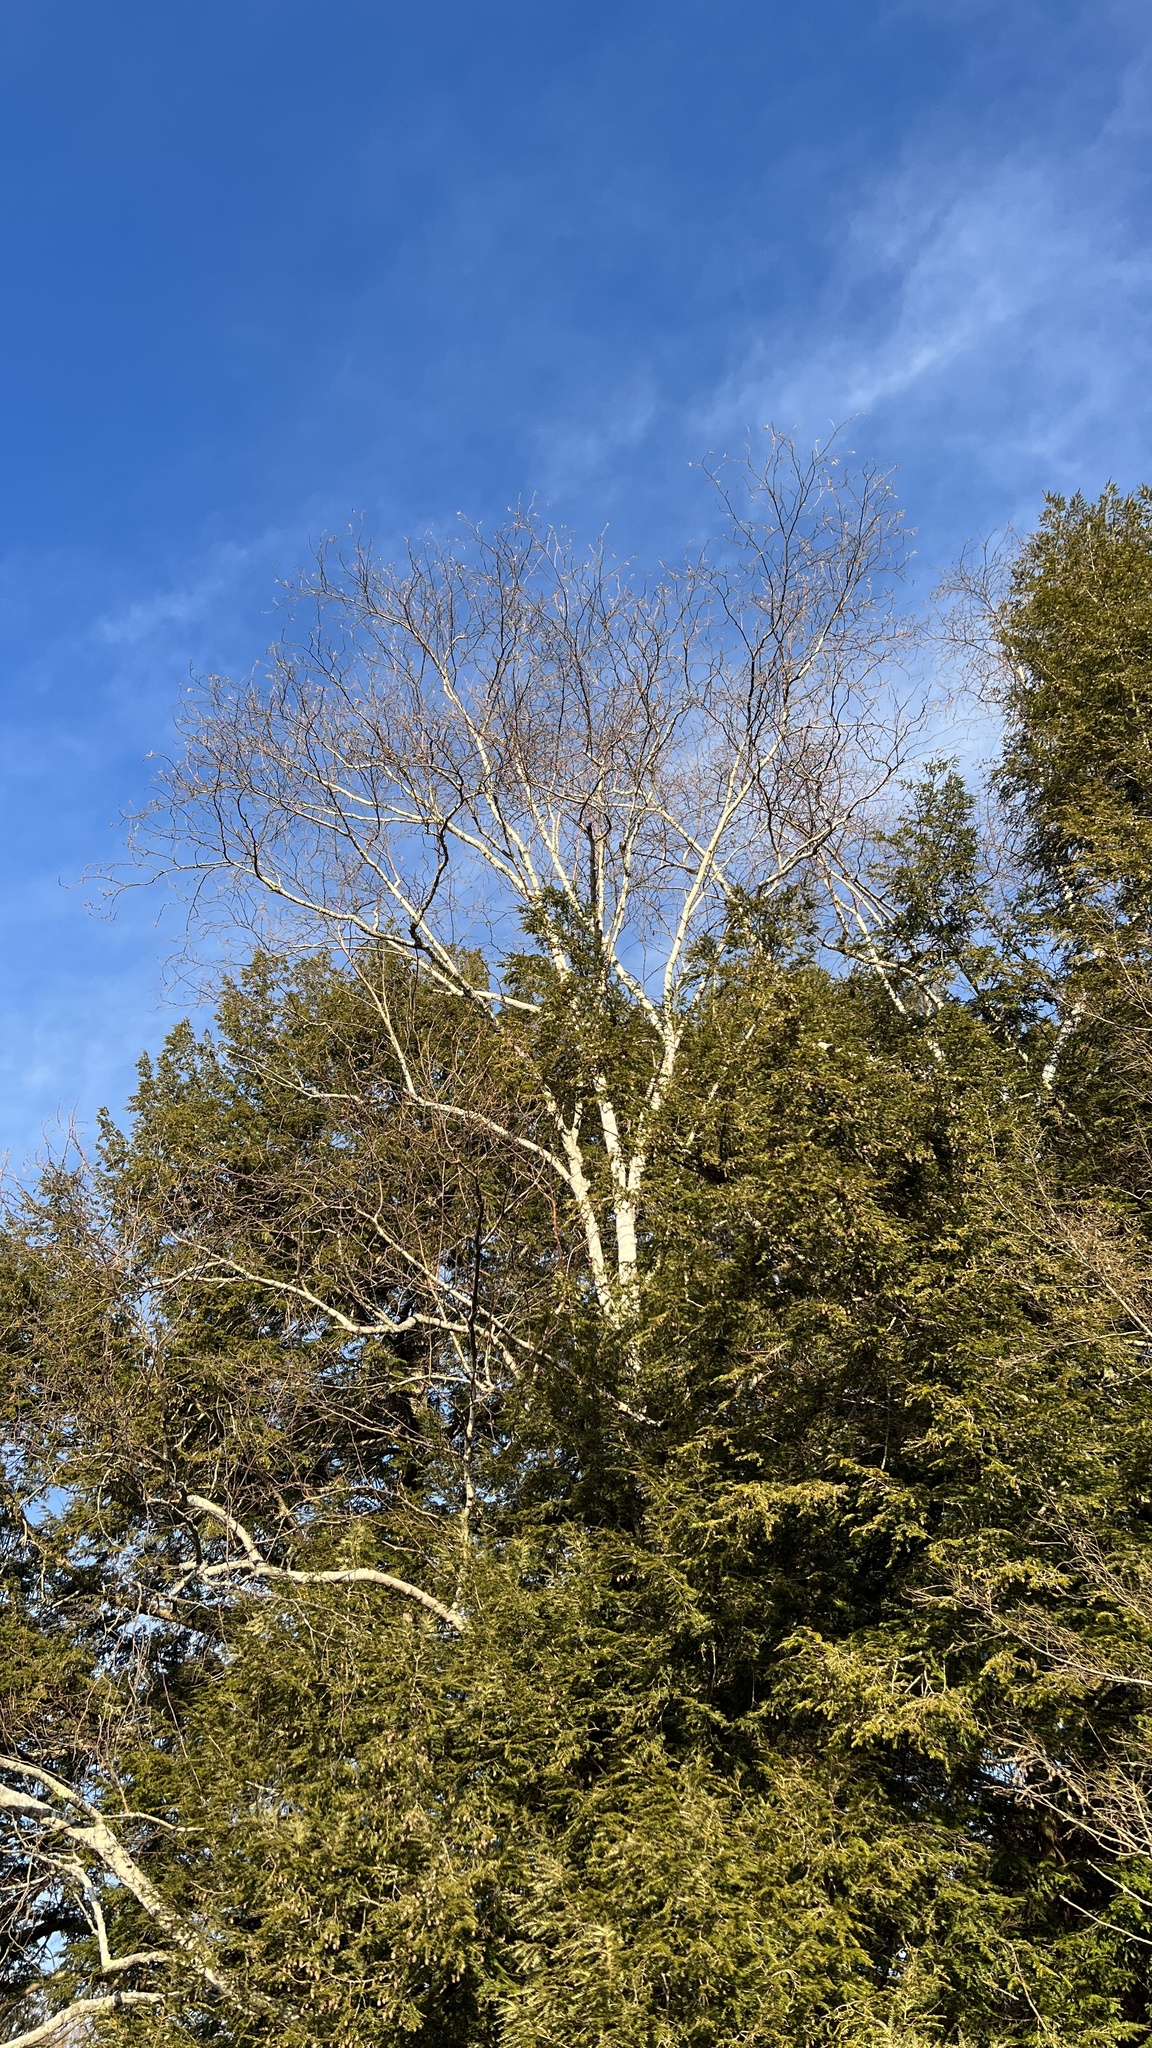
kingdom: Plantae
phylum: Tracheophyta
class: Magnoliopsida
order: Fagales
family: Betulaceae
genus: Betula
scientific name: Betula papyrifera
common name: Paper birch
